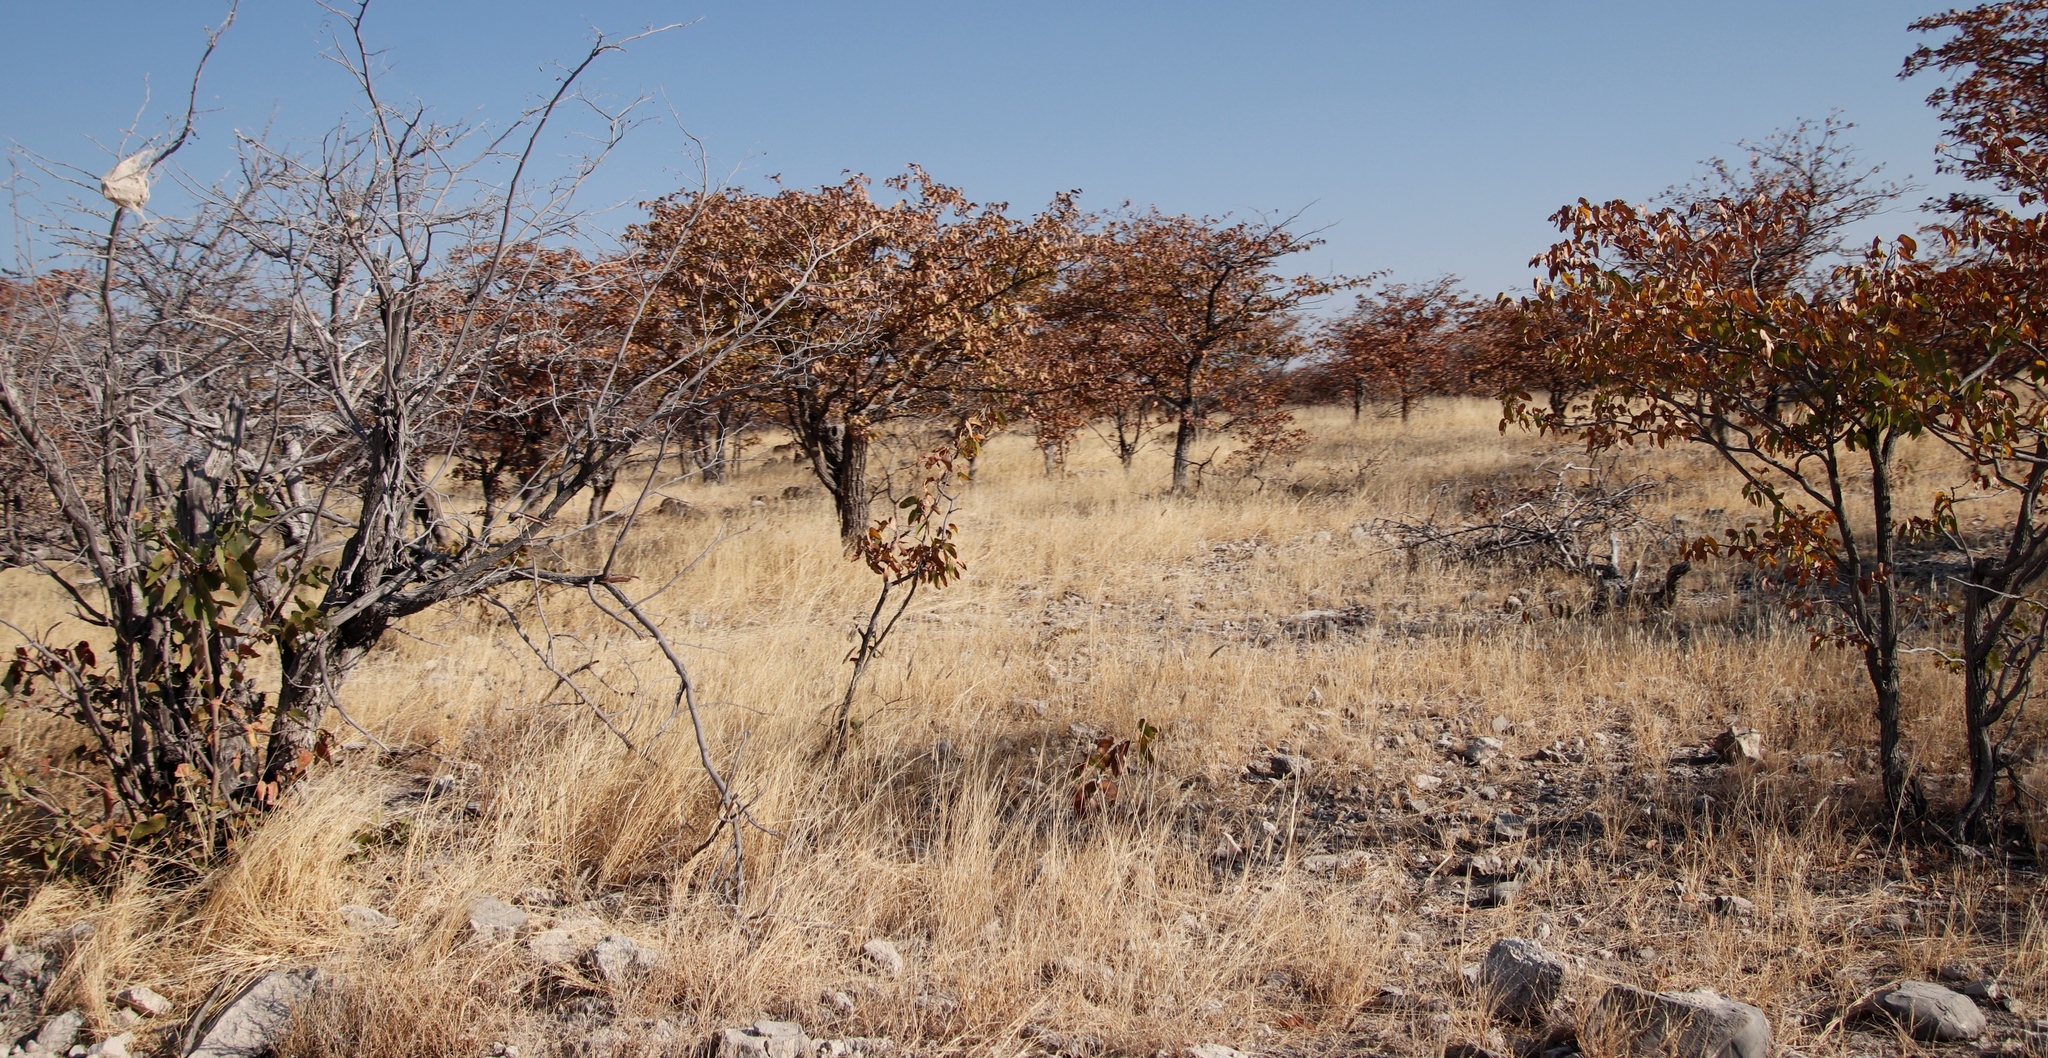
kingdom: Plantae
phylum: Tracheophyta
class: Magnoliopsida
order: Fabales
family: Fabaceae
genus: Colophospermum
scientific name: Colophospermum mopane
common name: Mopane
